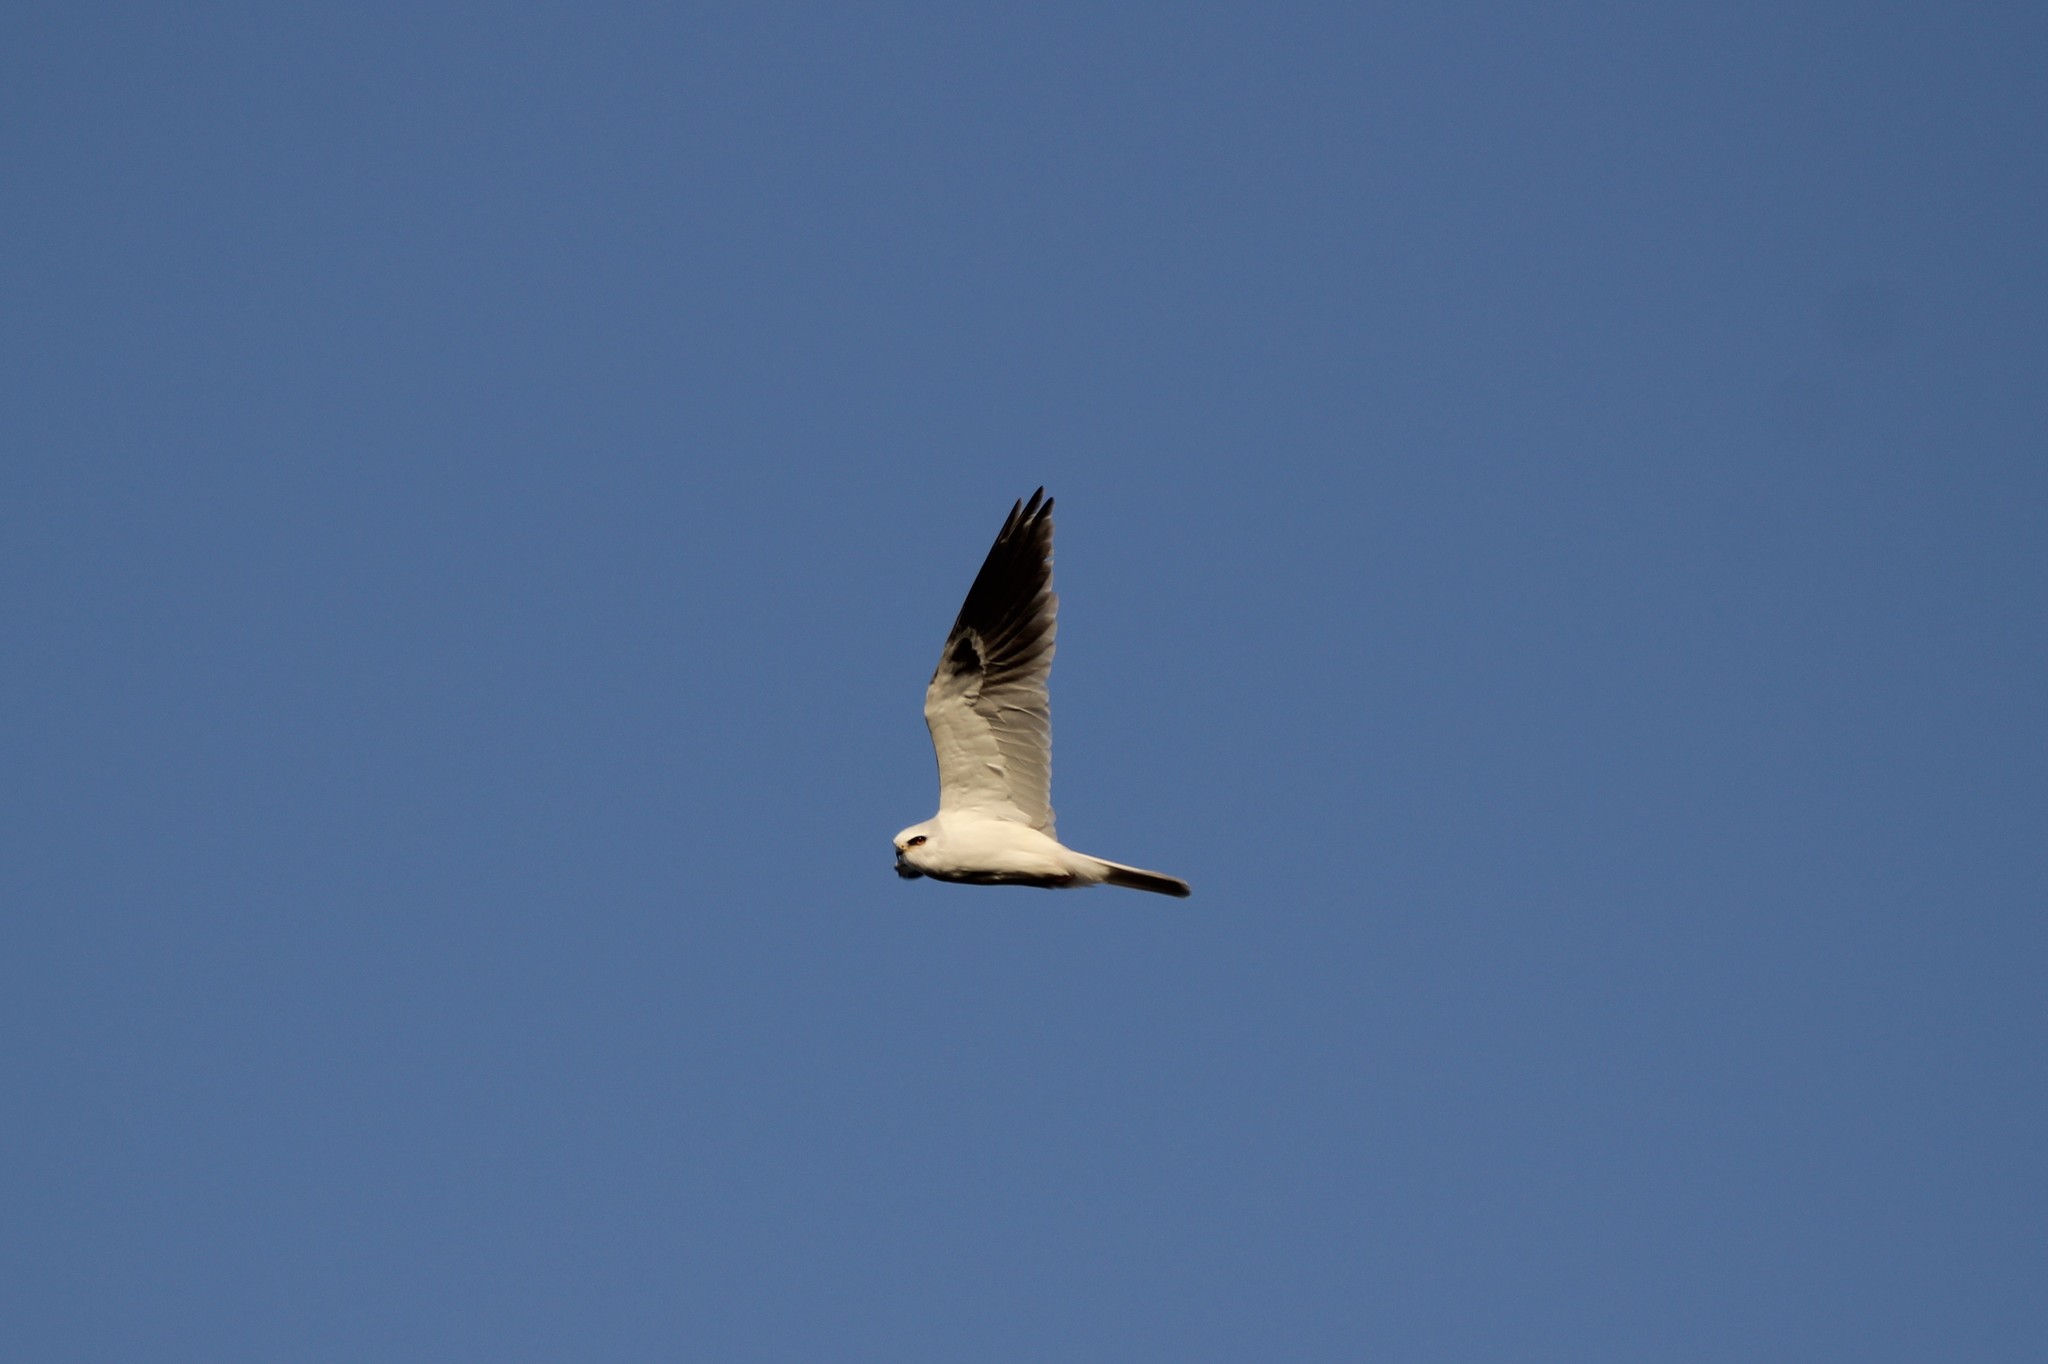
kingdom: Animalia
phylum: Chordata
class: Aves
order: Accipitriformes
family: Accipitridae
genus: Elanus
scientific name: Elanus leucurus
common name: White-tailed kite
